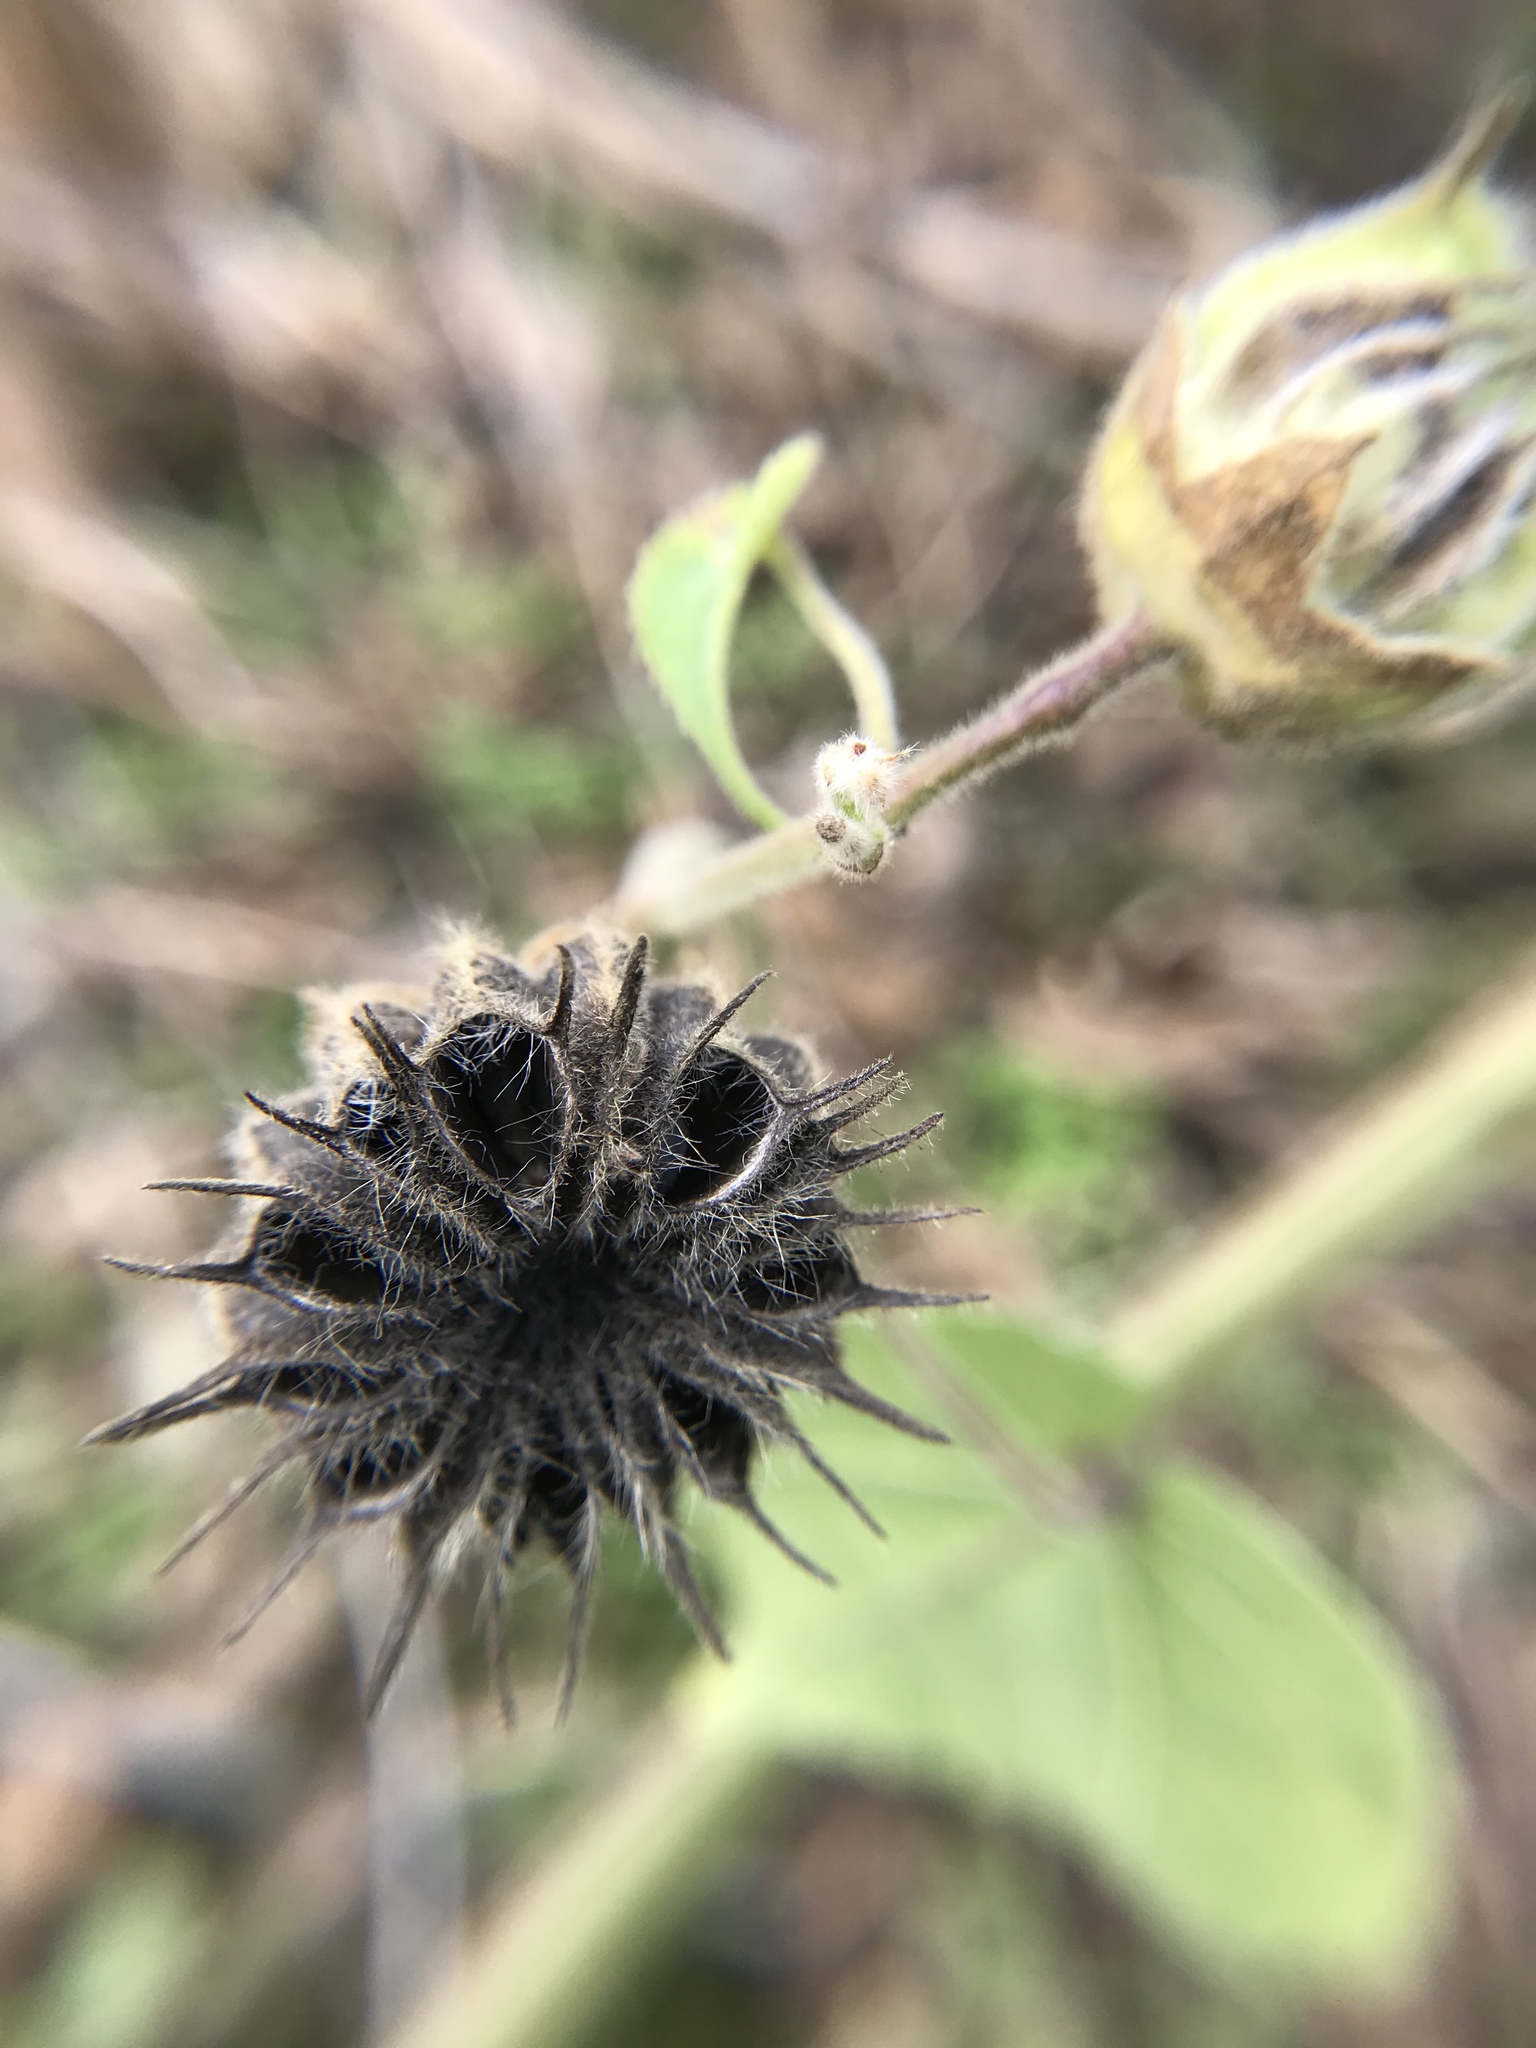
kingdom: Plantae
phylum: Tracheophyta
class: Magnoliopsida
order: Malvales
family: Malvaceae
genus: Abutilon
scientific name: Abutilon theophrasti
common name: Velvetleaf
